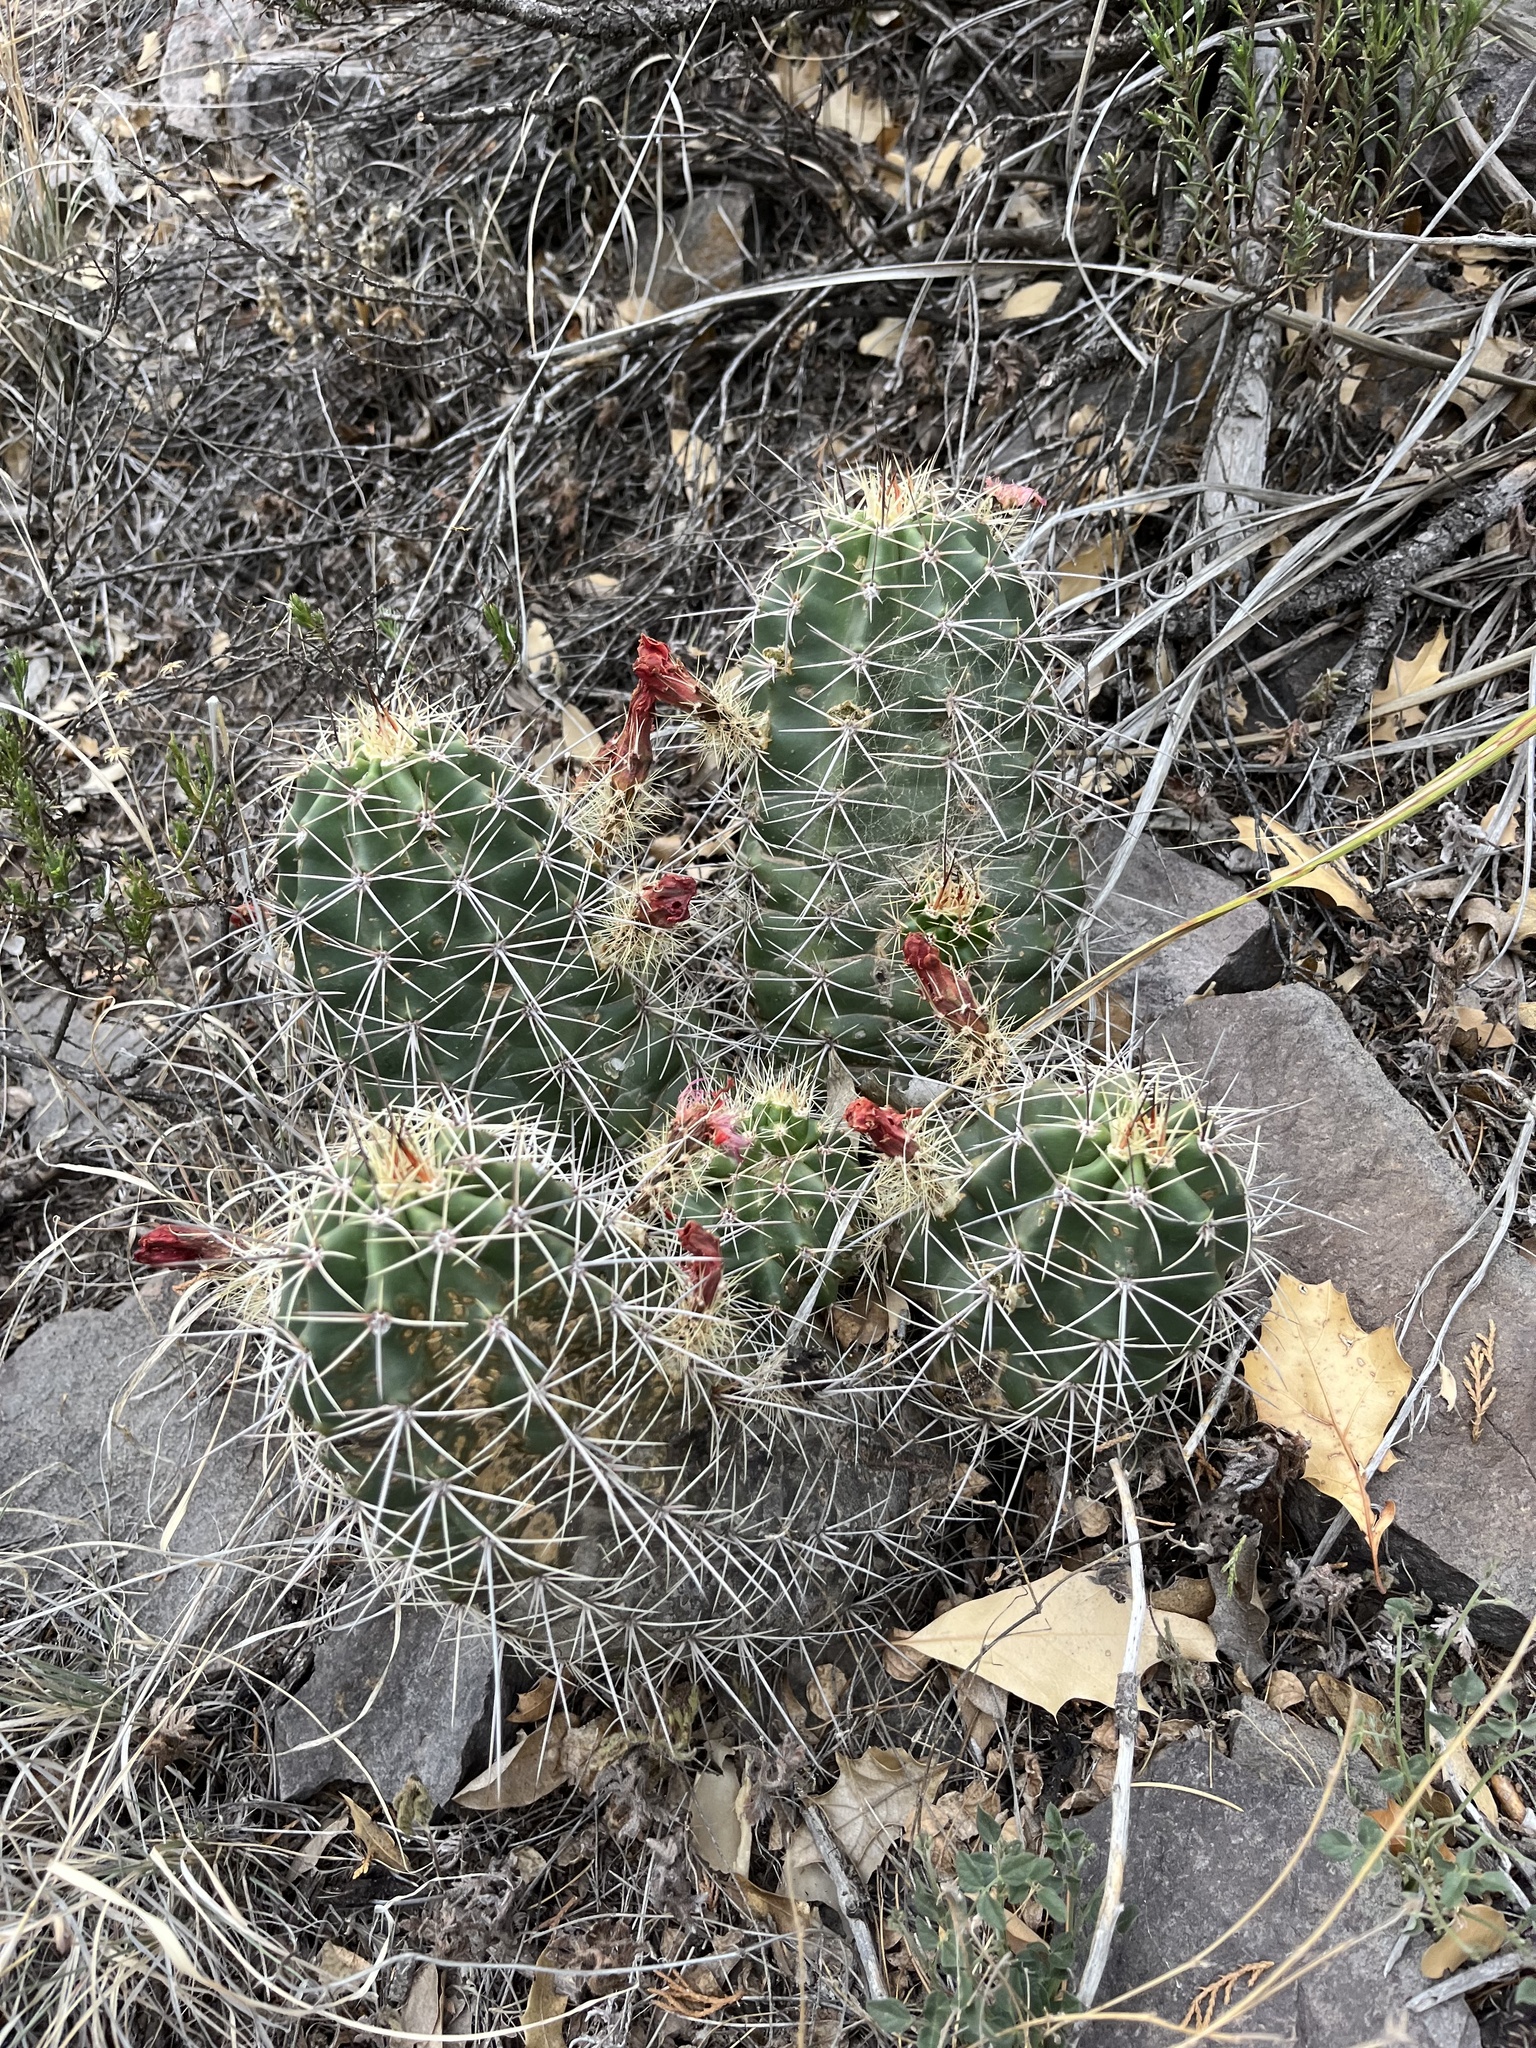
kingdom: Plantae
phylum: Tracheophyta
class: Magnoliopsida
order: Caryophyllales
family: Cactaceae
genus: Echinocereus
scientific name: Echinocereus coccineus
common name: Scarlet hedgehog cactus
